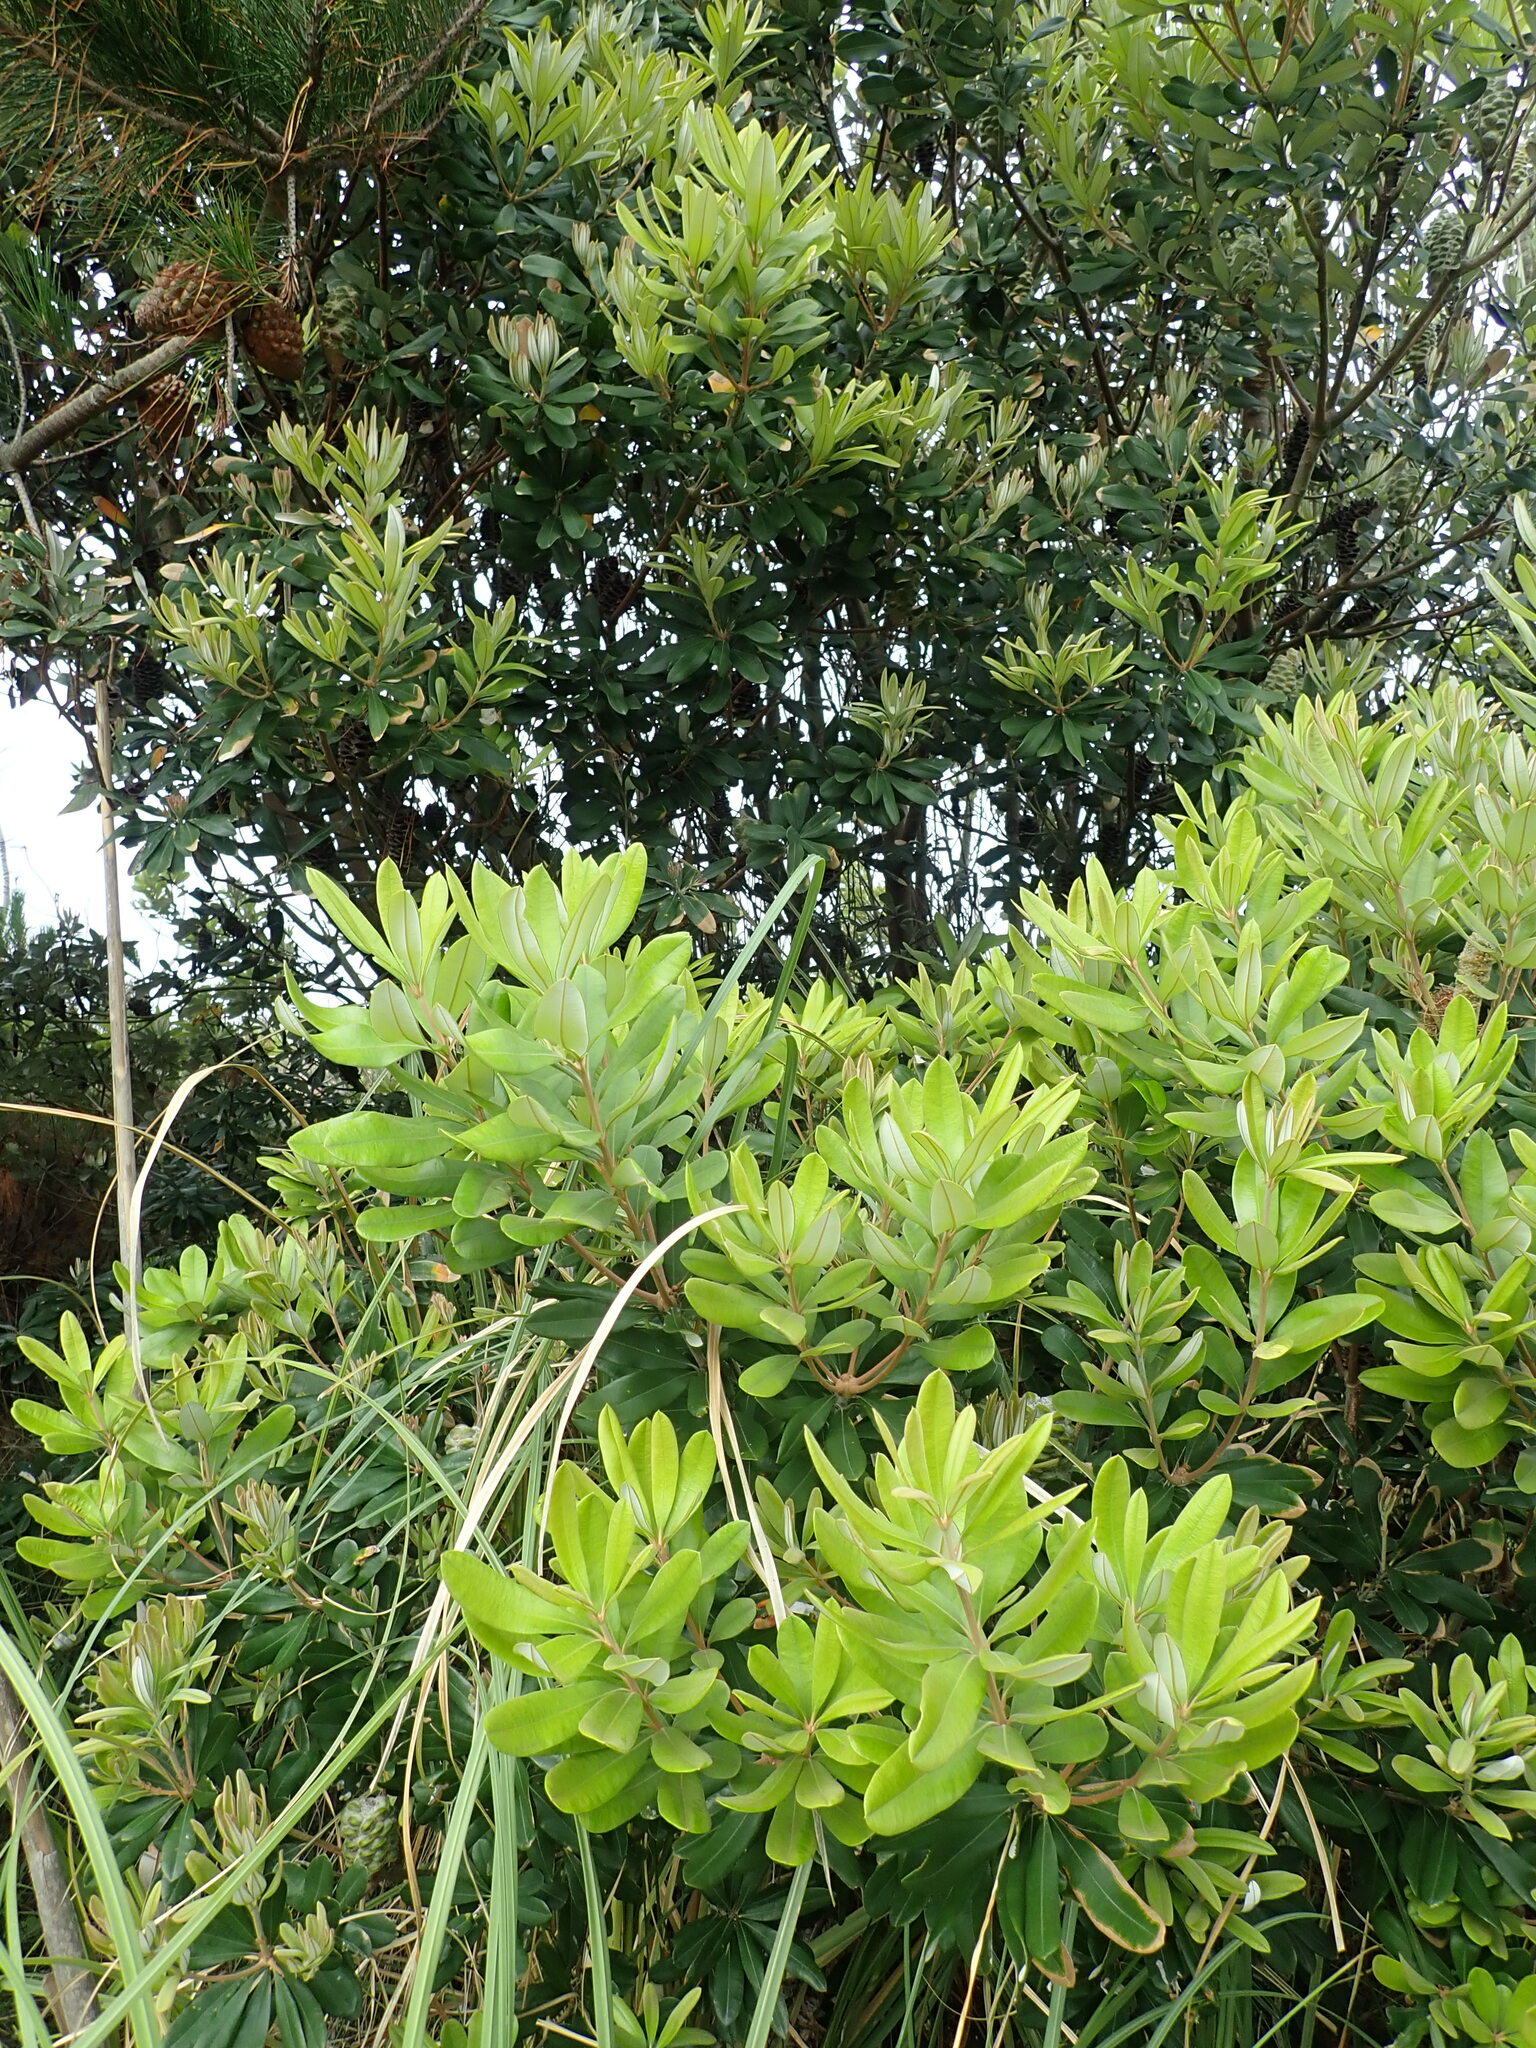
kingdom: Plantae
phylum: Tracheophyta
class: Magnoliopsida
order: Proteales
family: Proteaceae
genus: Banksia
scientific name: Banksia integrifolia
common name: White-honeysuckle
